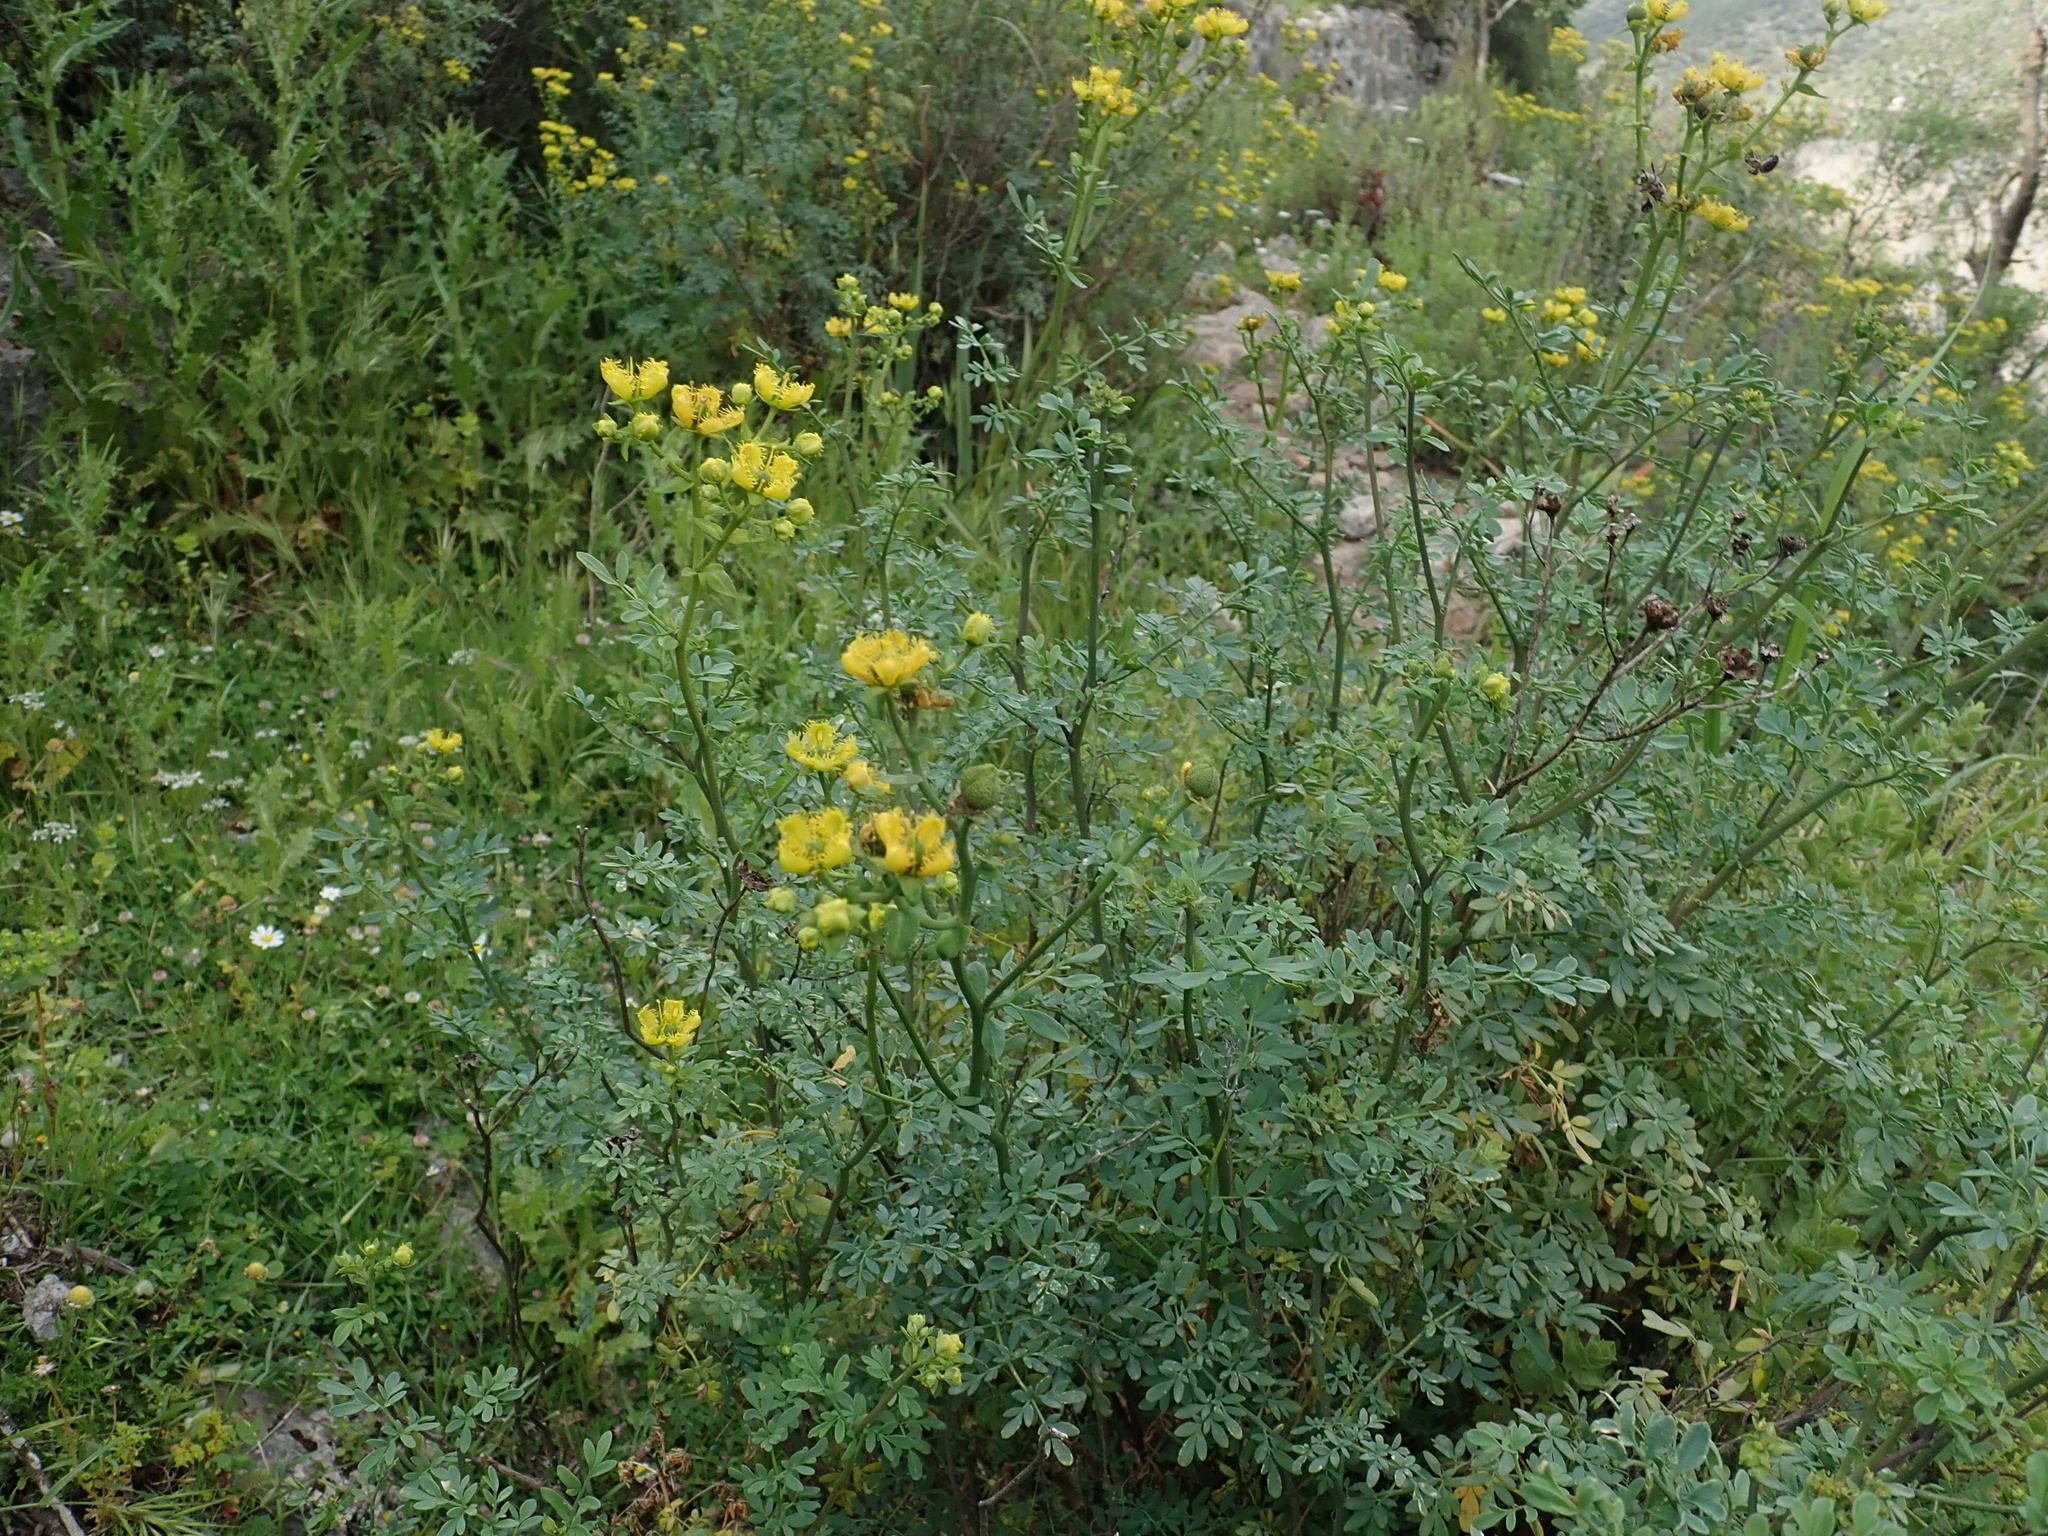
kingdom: Plantae
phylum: Tracheophyta
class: Magnoliopsida
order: Sapindales
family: Rutaceae
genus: Ruta
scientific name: Ruta chalepensis
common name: Fringed rue
